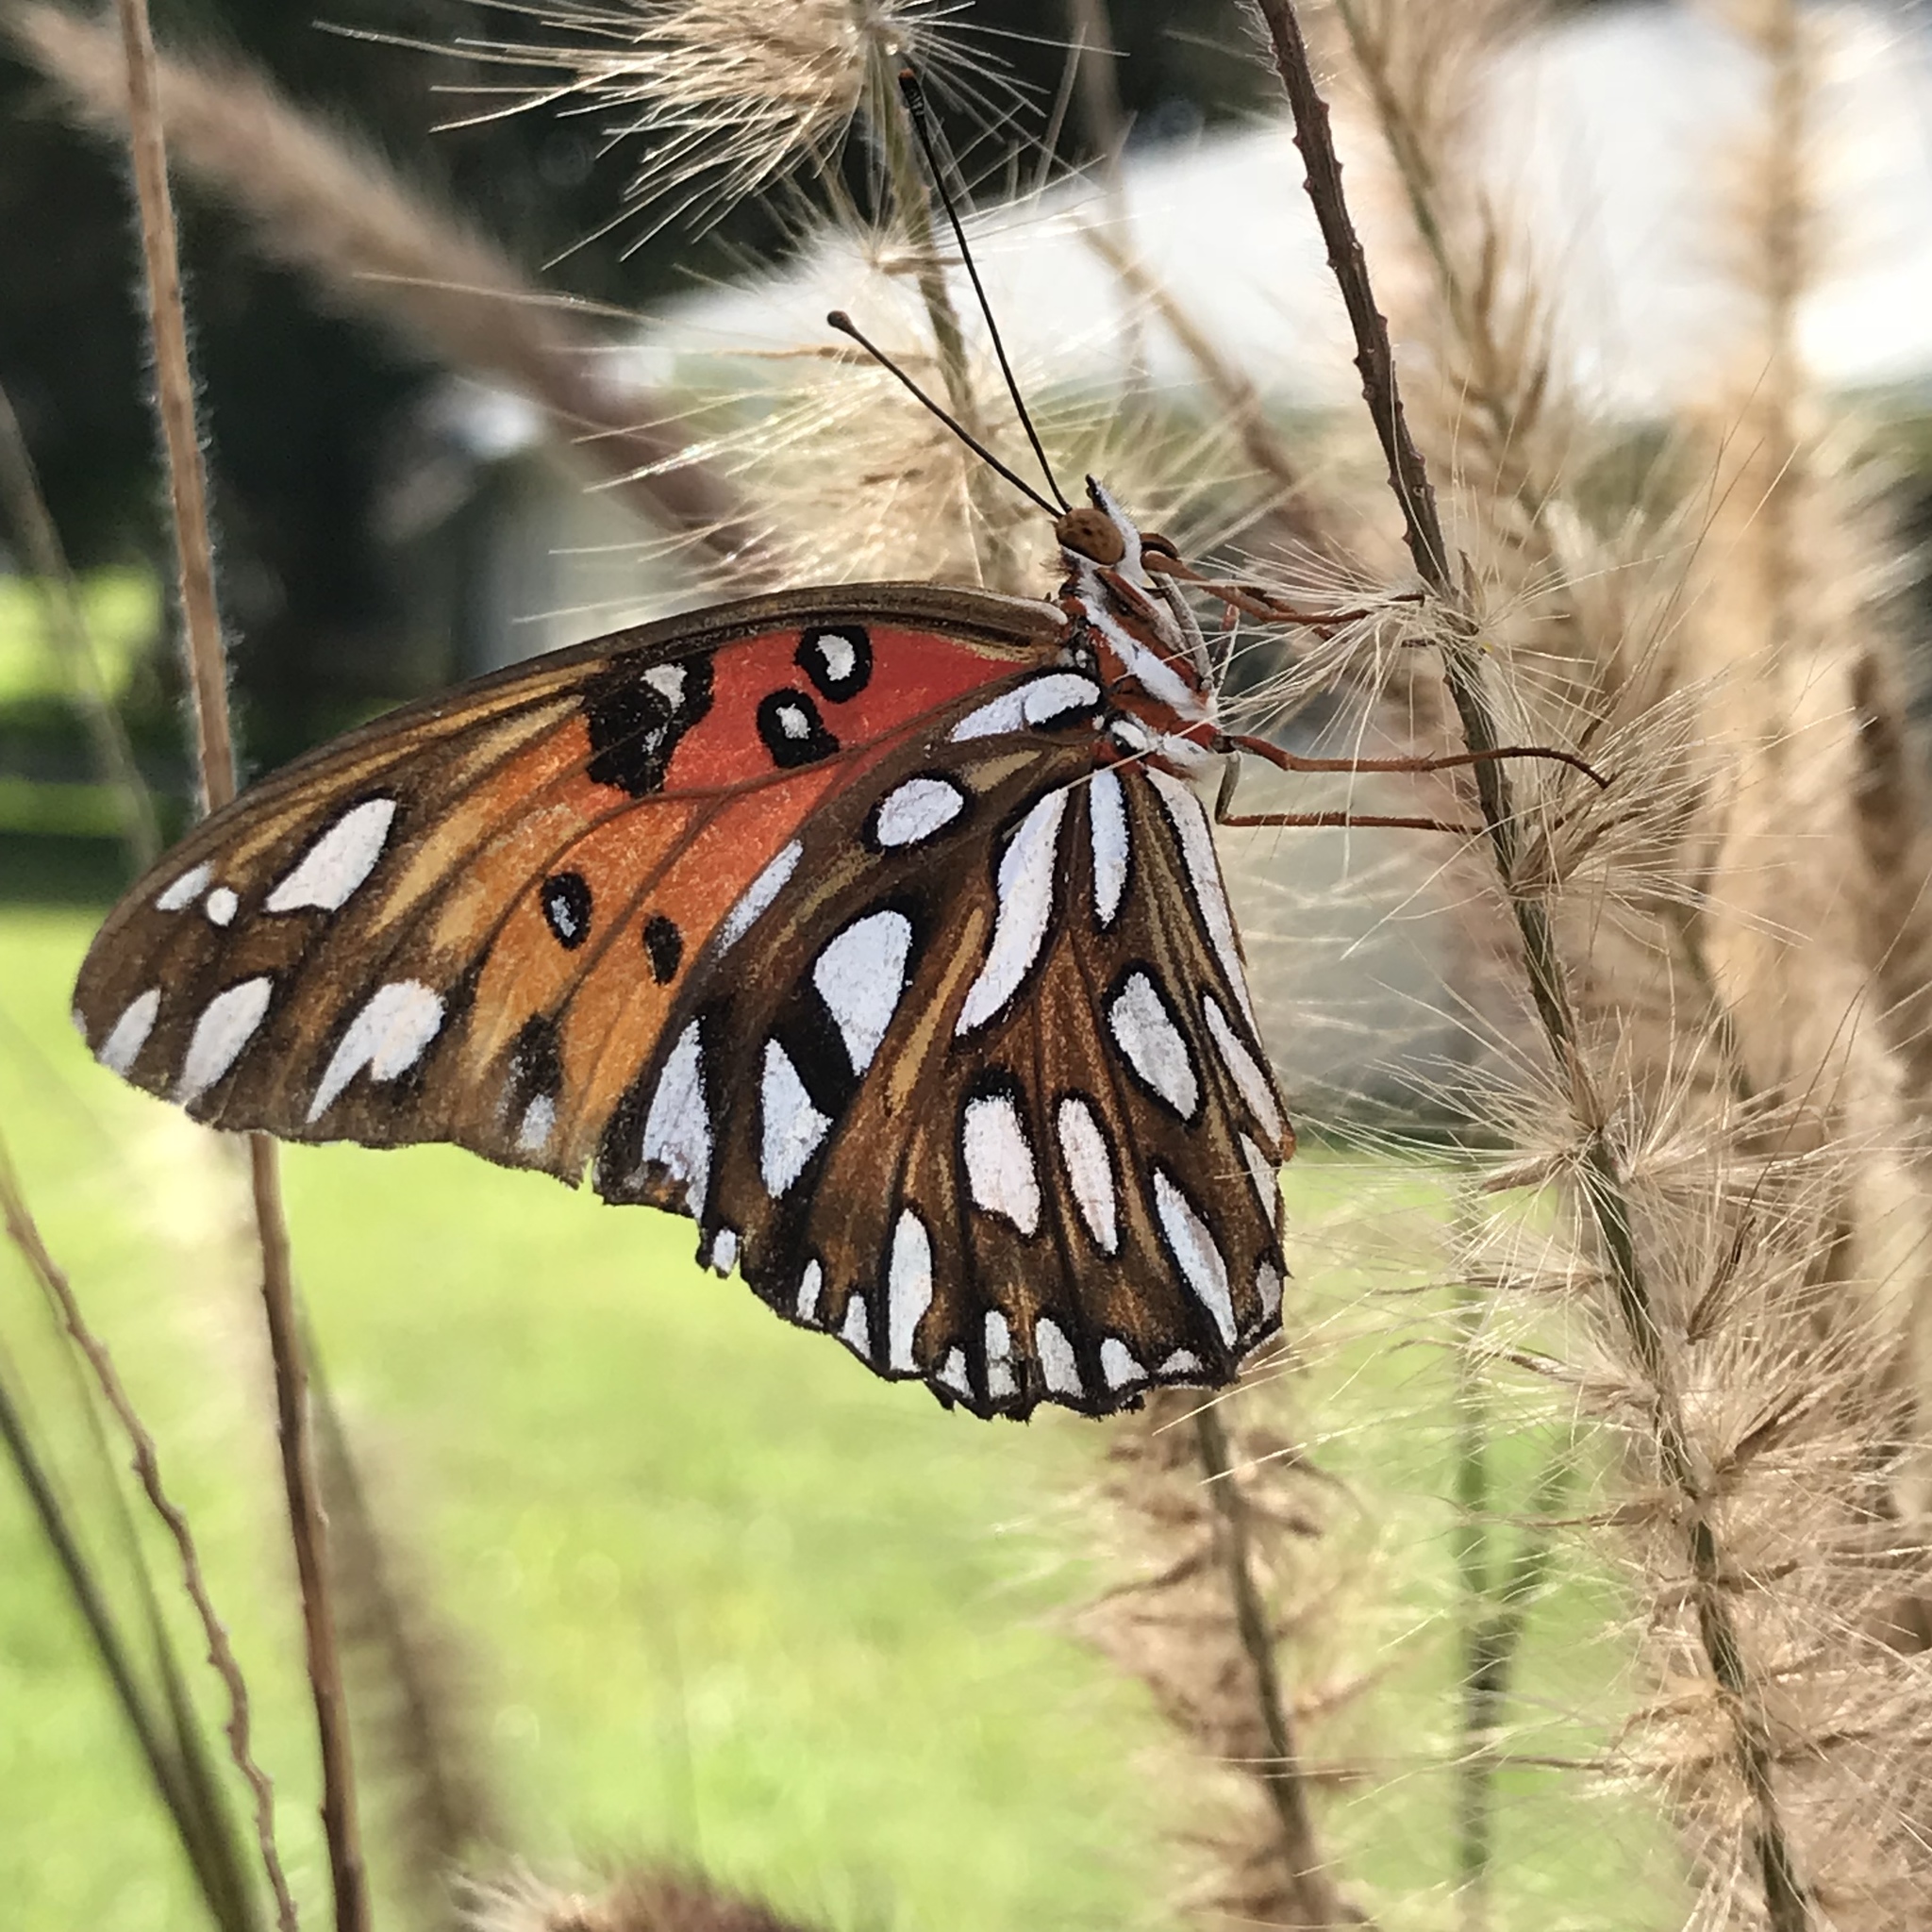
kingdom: Animalia
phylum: Arthropoda
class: Insecta
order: Lepidoptera
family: Nymphalidae
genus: Dione
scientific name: Dione vanillae
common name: Gulf fritillary
